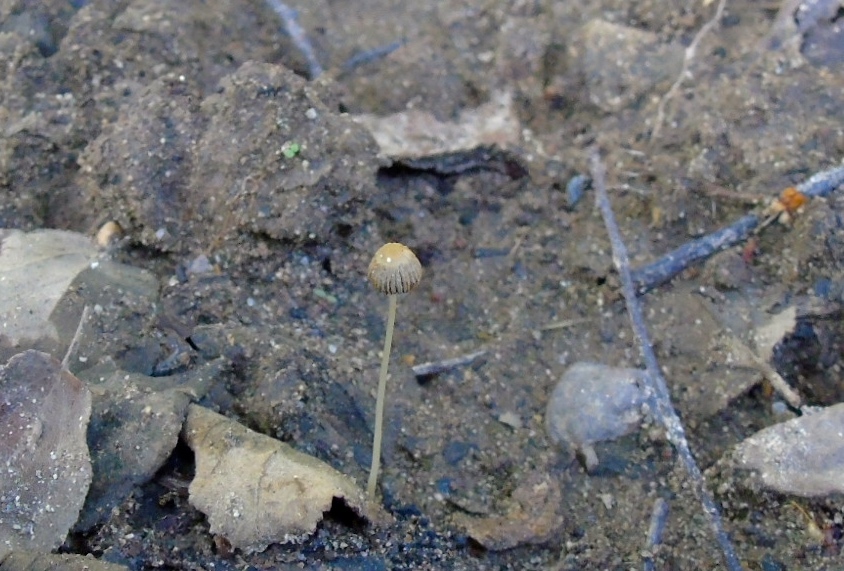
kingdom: Fungi
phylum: Basidiomycota
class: Agaricomycetes
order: Agaricales
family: Psathyrellaceae
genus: Parasola
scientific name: Parasola
